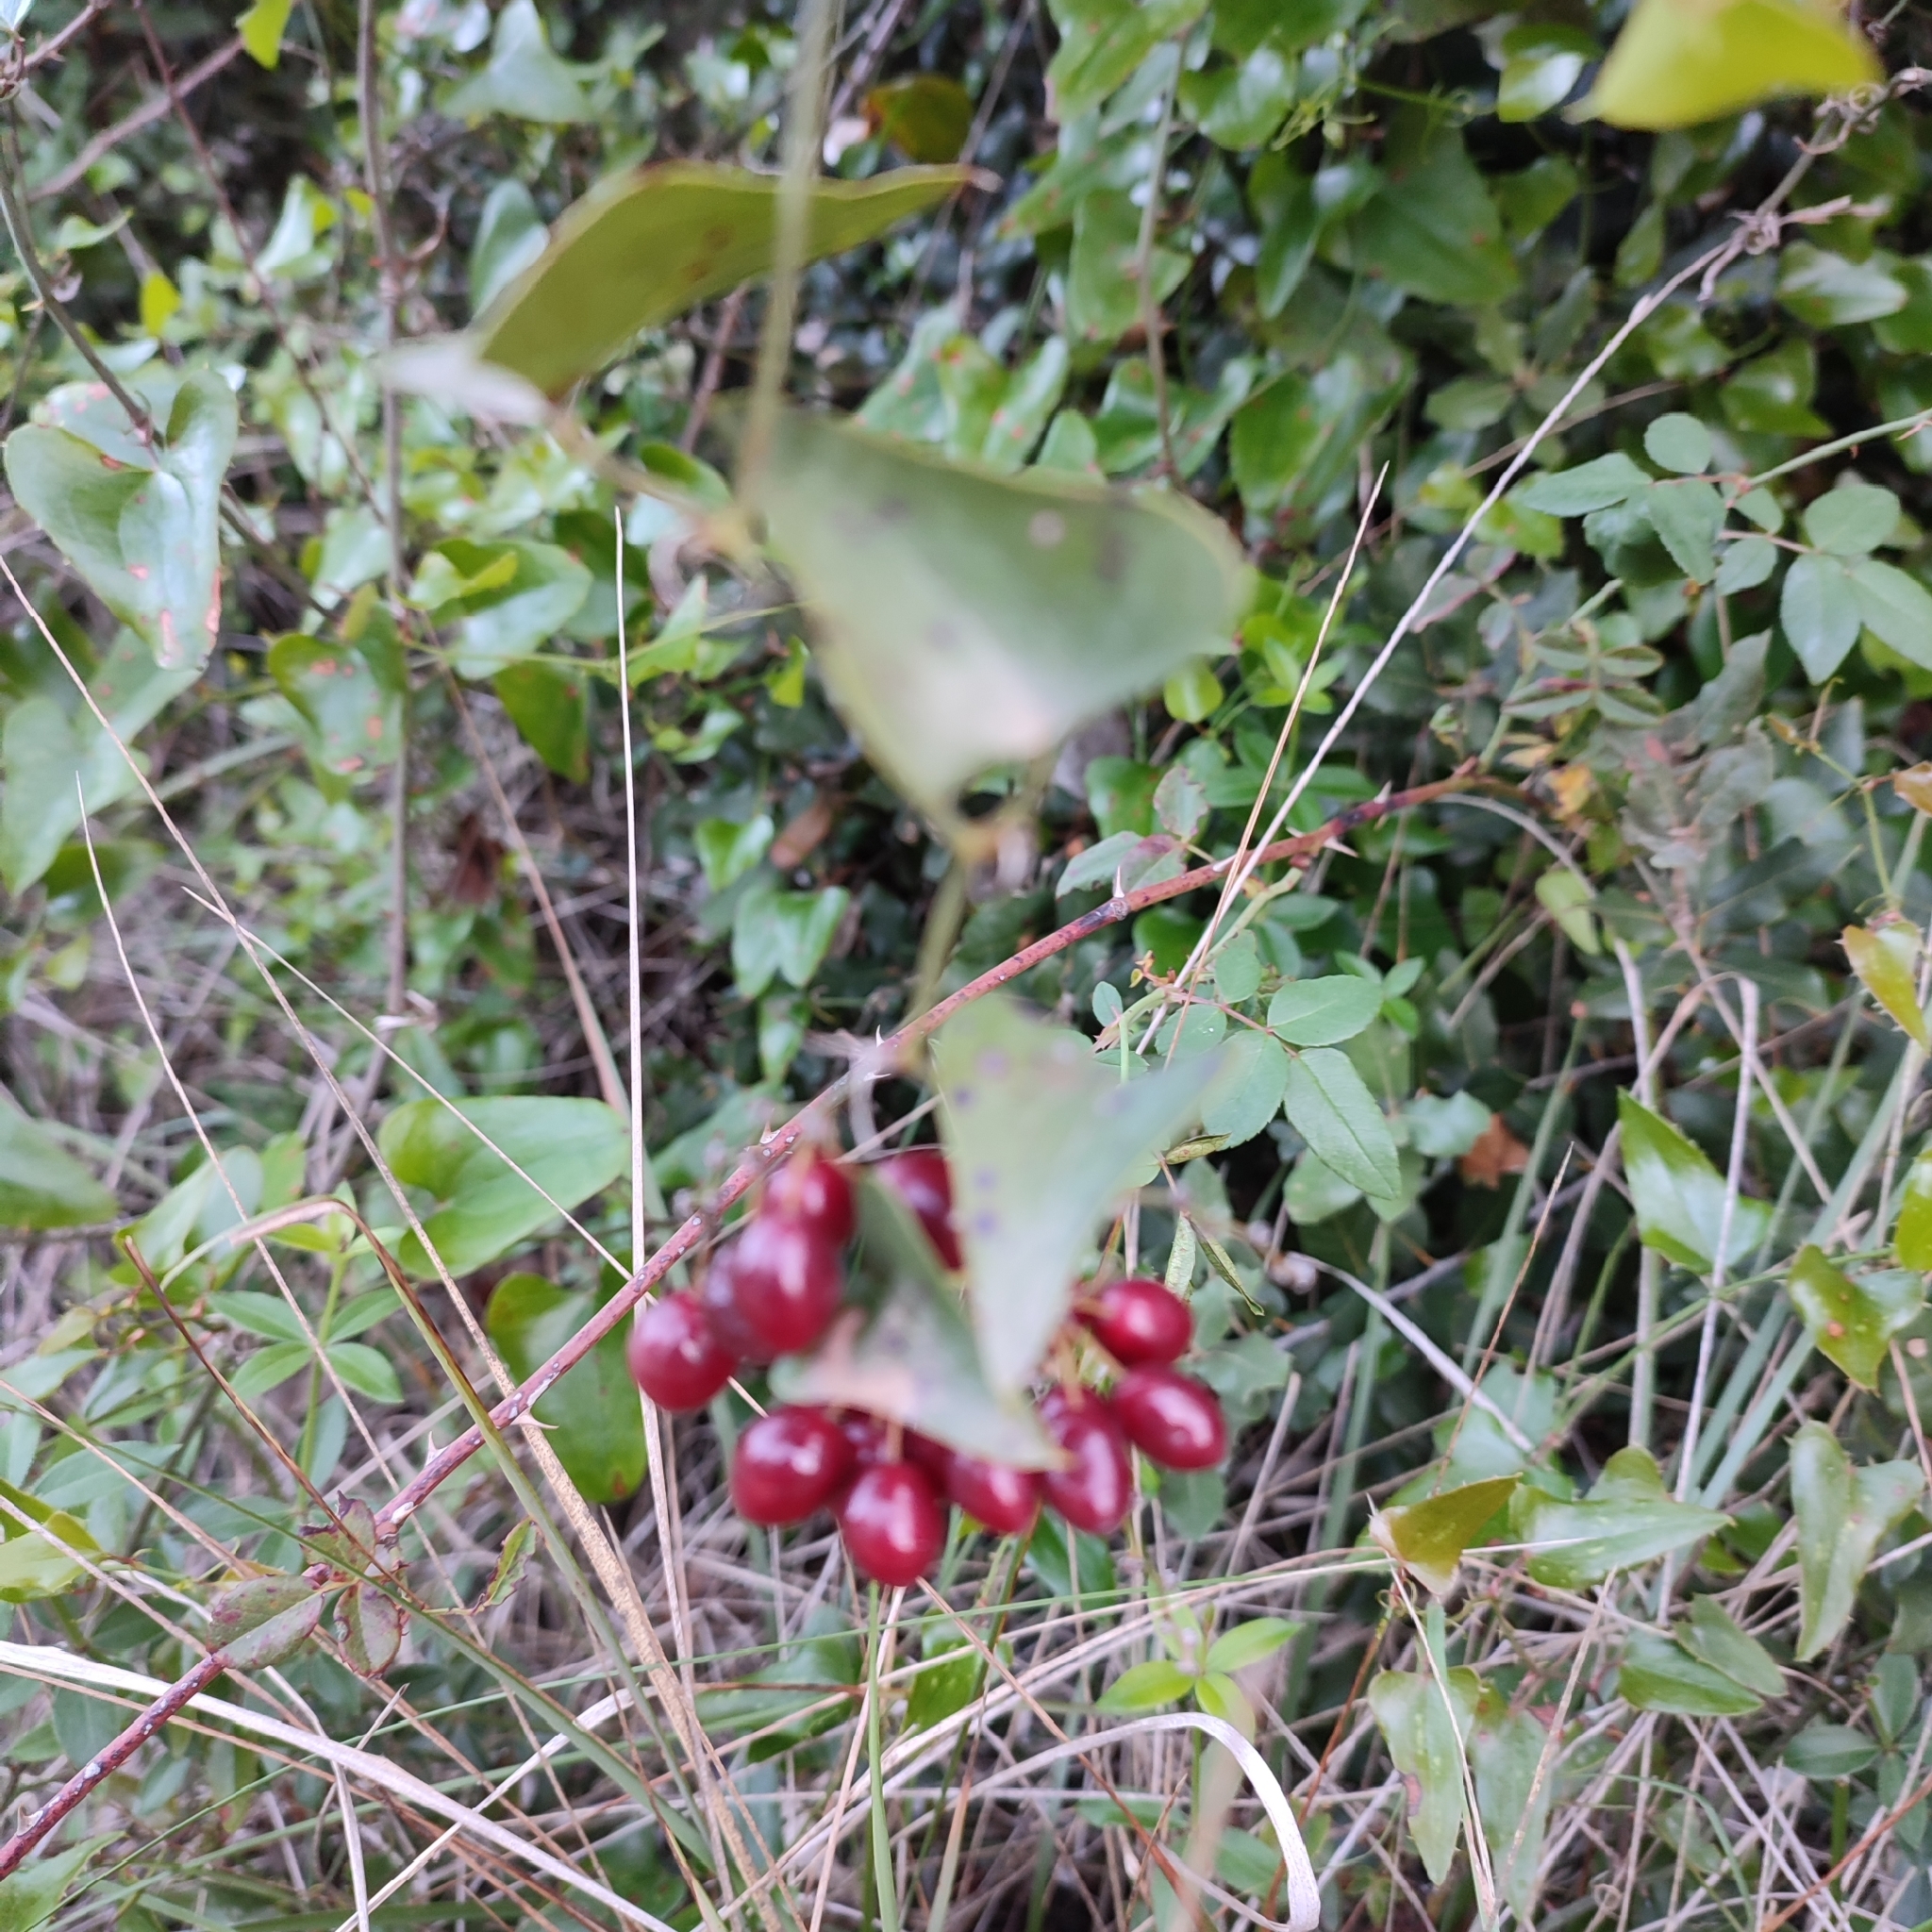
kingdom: Plantae
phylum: Tracheophyta
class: Liliopsida
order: Liliales
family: Smilacaceae
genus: Smilax
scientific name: Smilax aspera
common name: Common smilax
